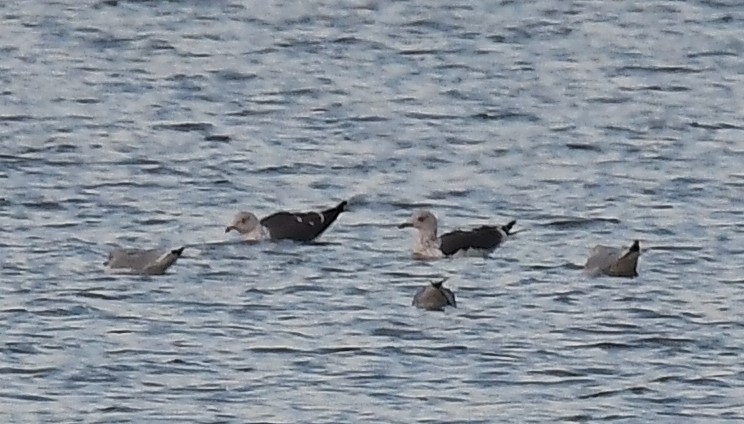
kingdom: Animalia
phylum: Chordata
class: Aves
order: Charadriiformes
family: Laridae
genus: Larus
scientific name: Larus fuscus
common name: Lesser black-backed gull
